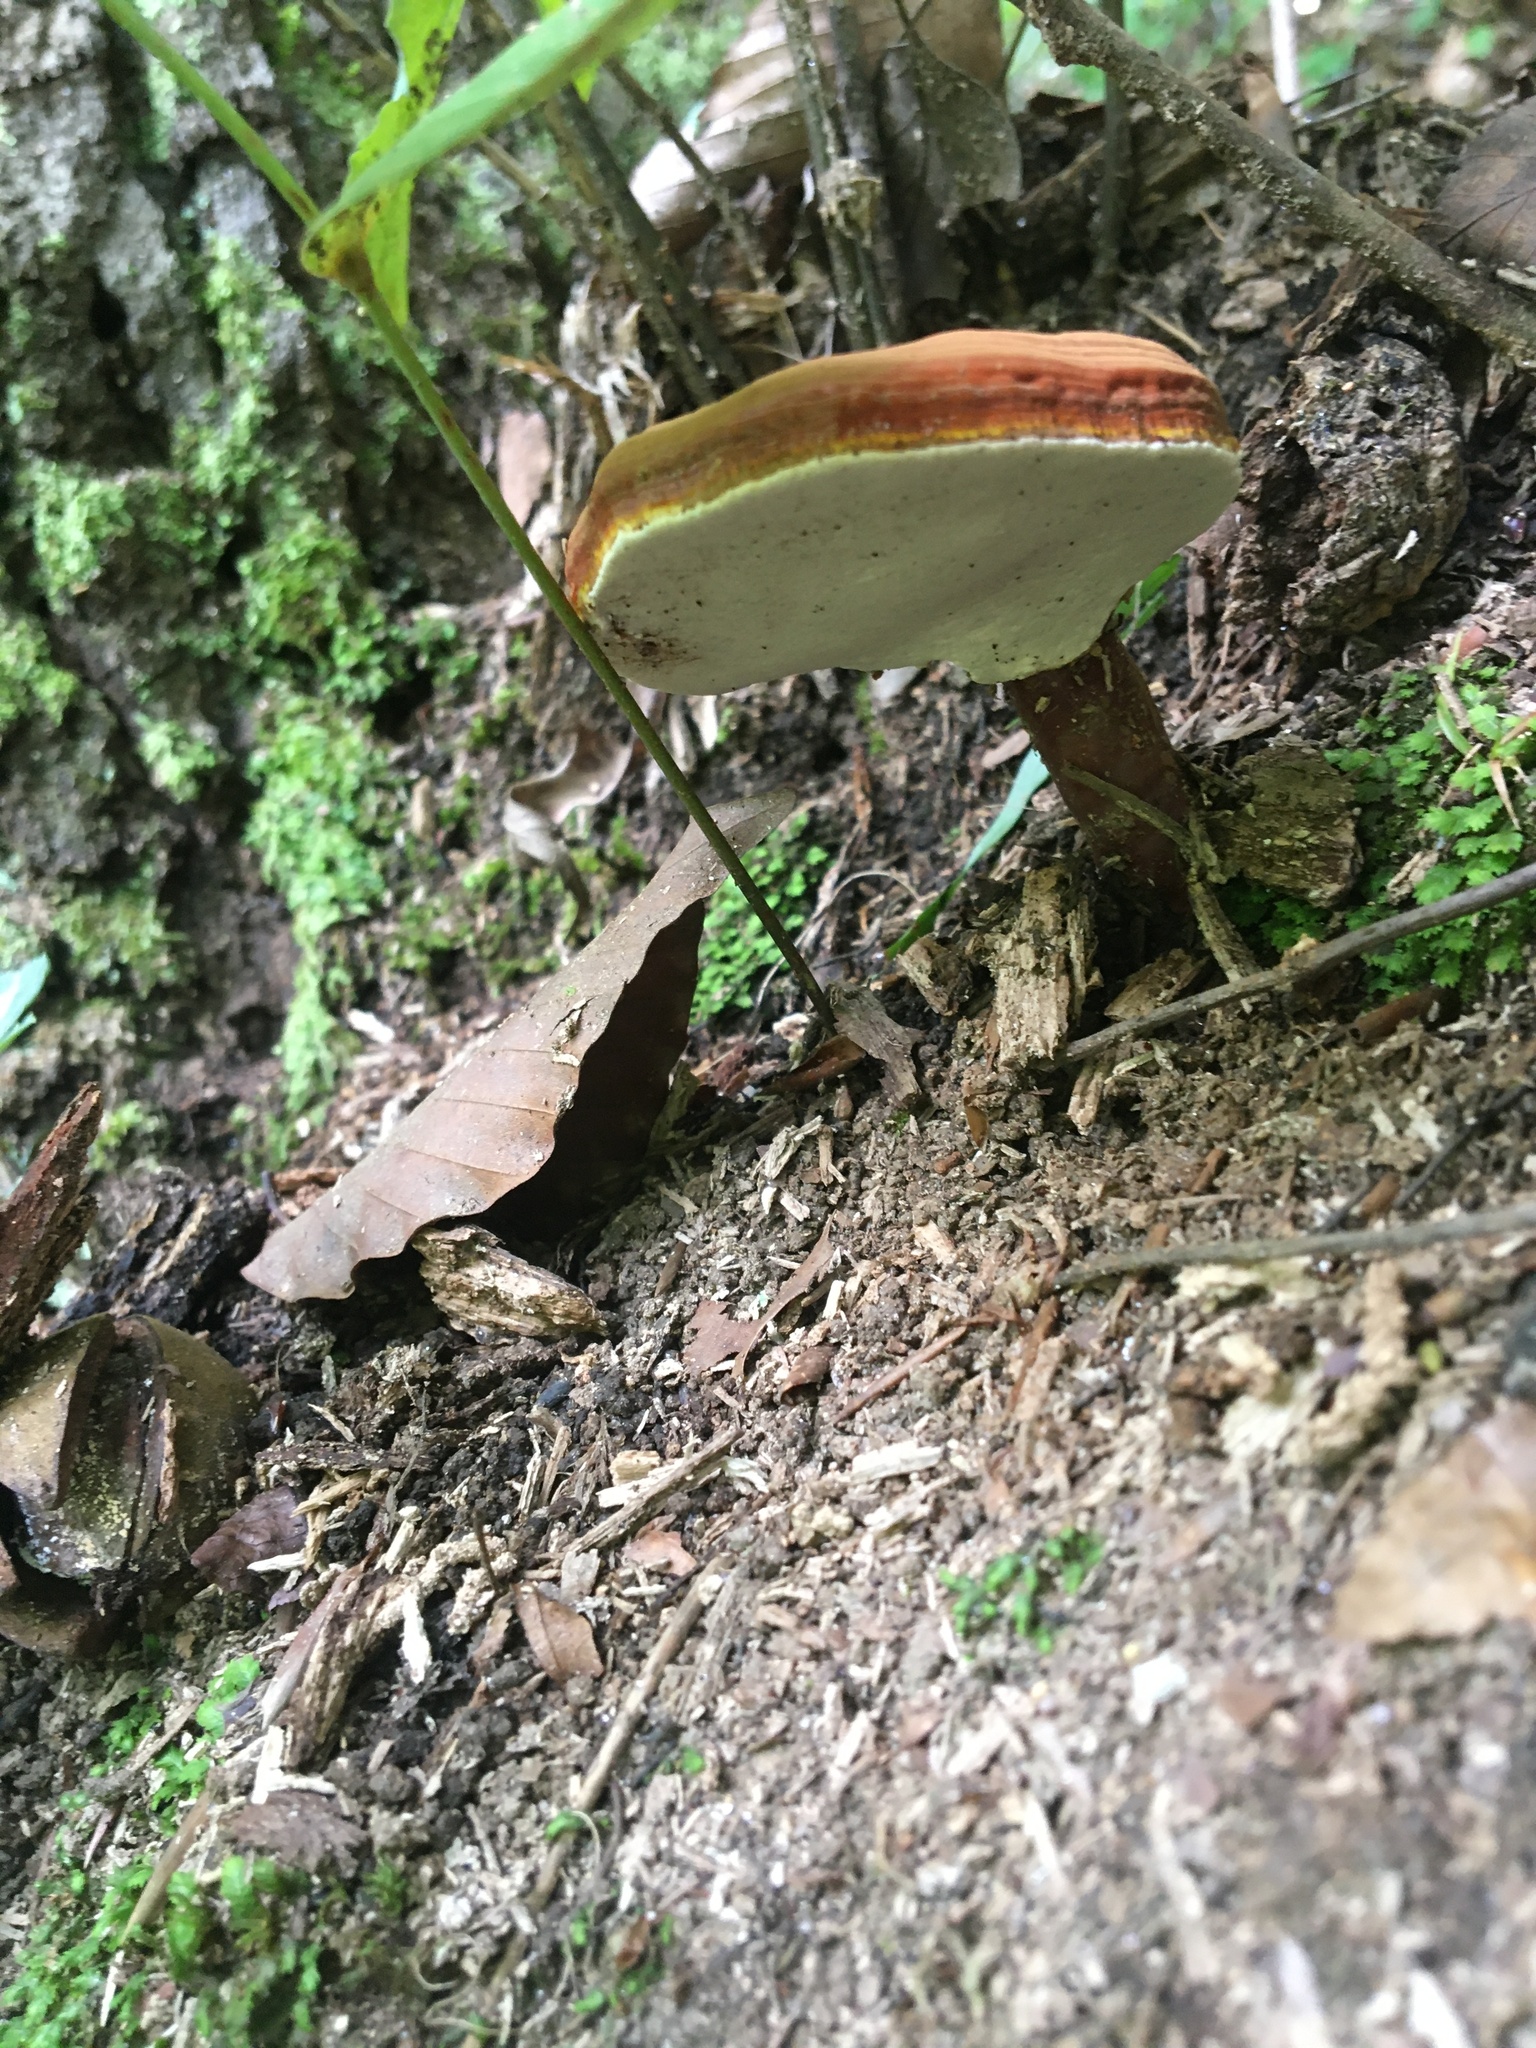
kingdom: Fungi
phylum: Basidiomycota
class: Agaricomycetes
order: Polyporales
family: Polyporaceae
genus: Ganoderma
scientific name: Ganoderma curtisii
